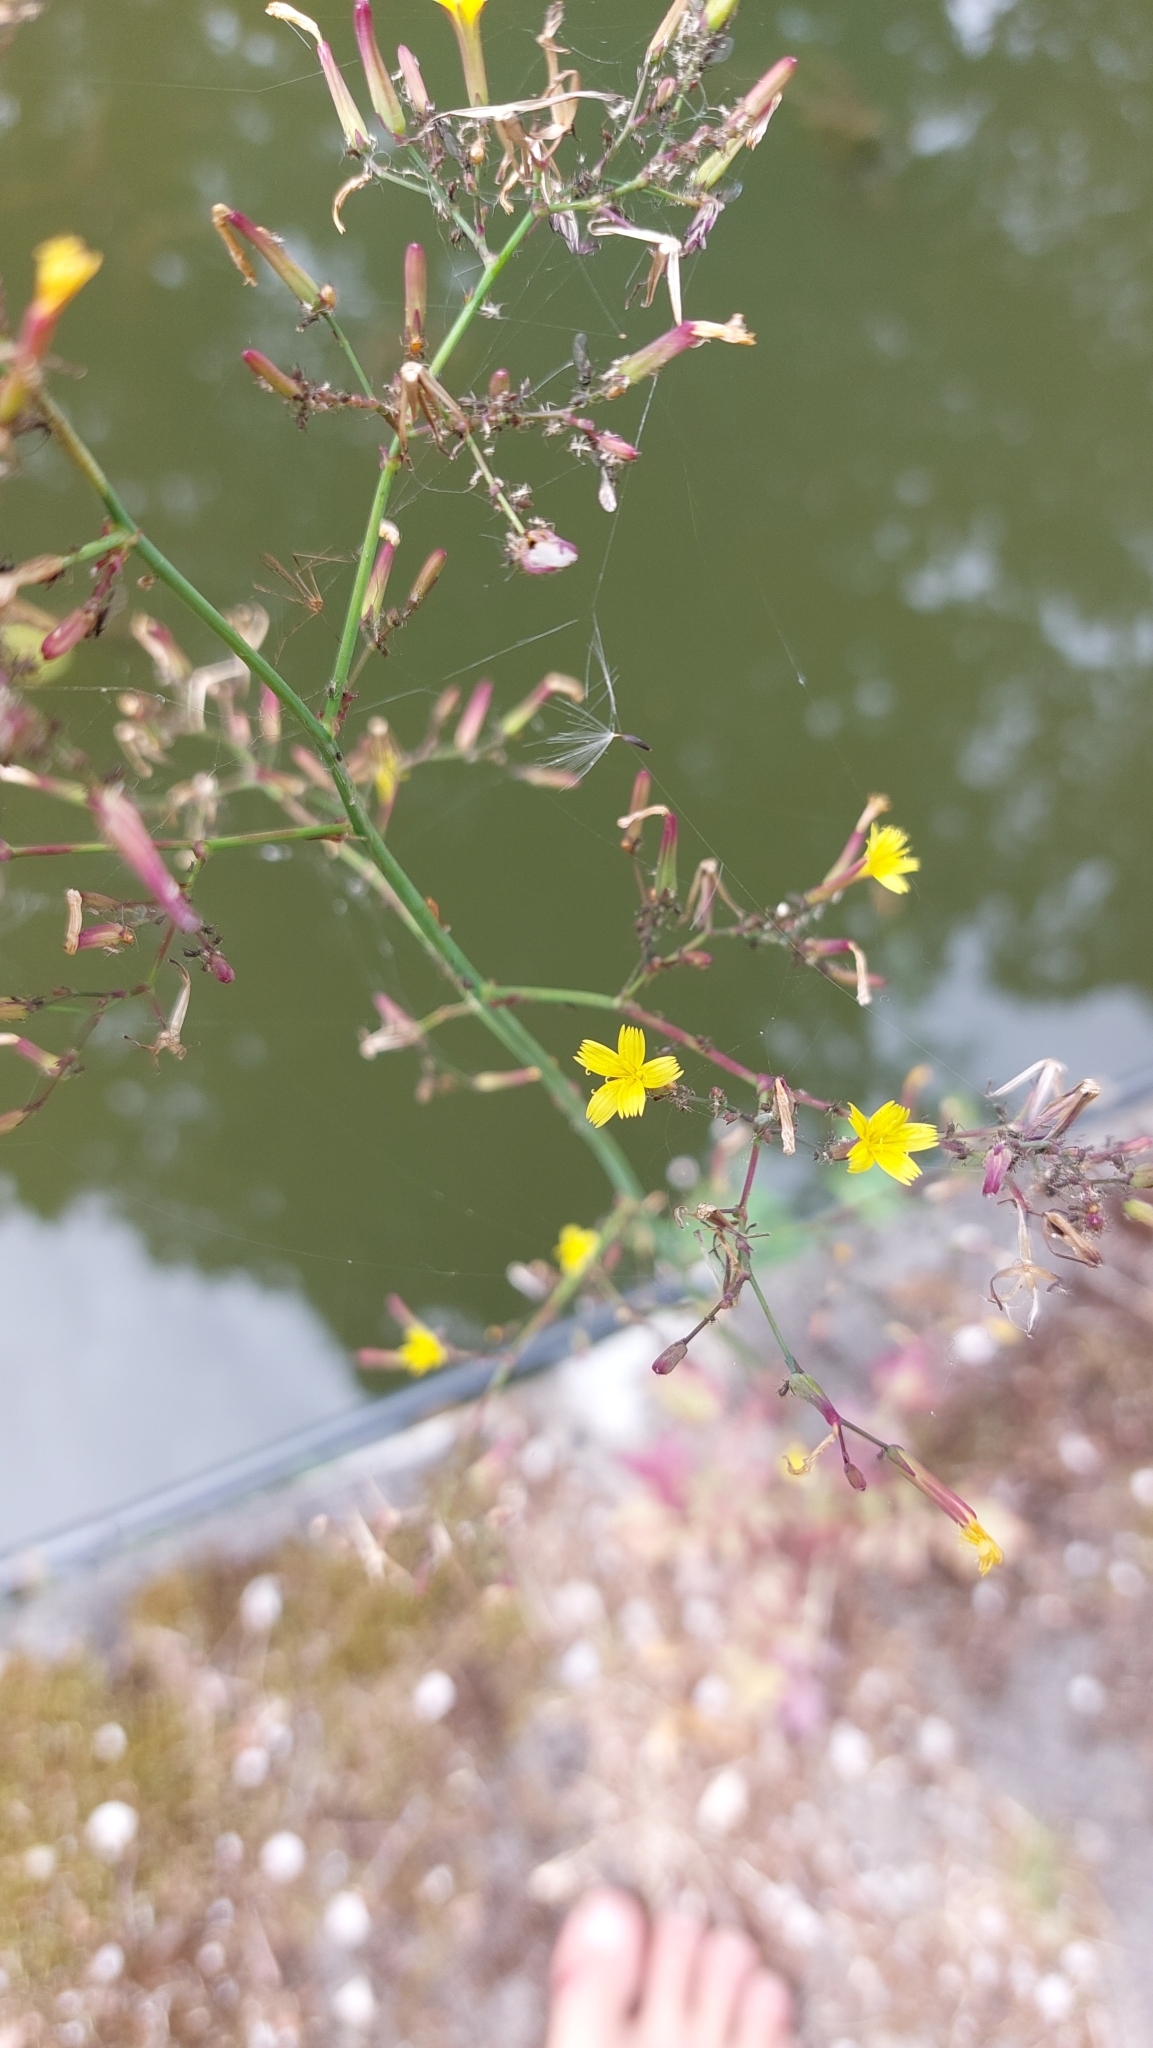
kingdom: Plantae
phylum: Tracheophyta
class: Magnoliopsida
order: Asterales
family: Asteraceae
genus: Mycelis
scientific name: Mycelis muralis
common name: Wall lettuce
